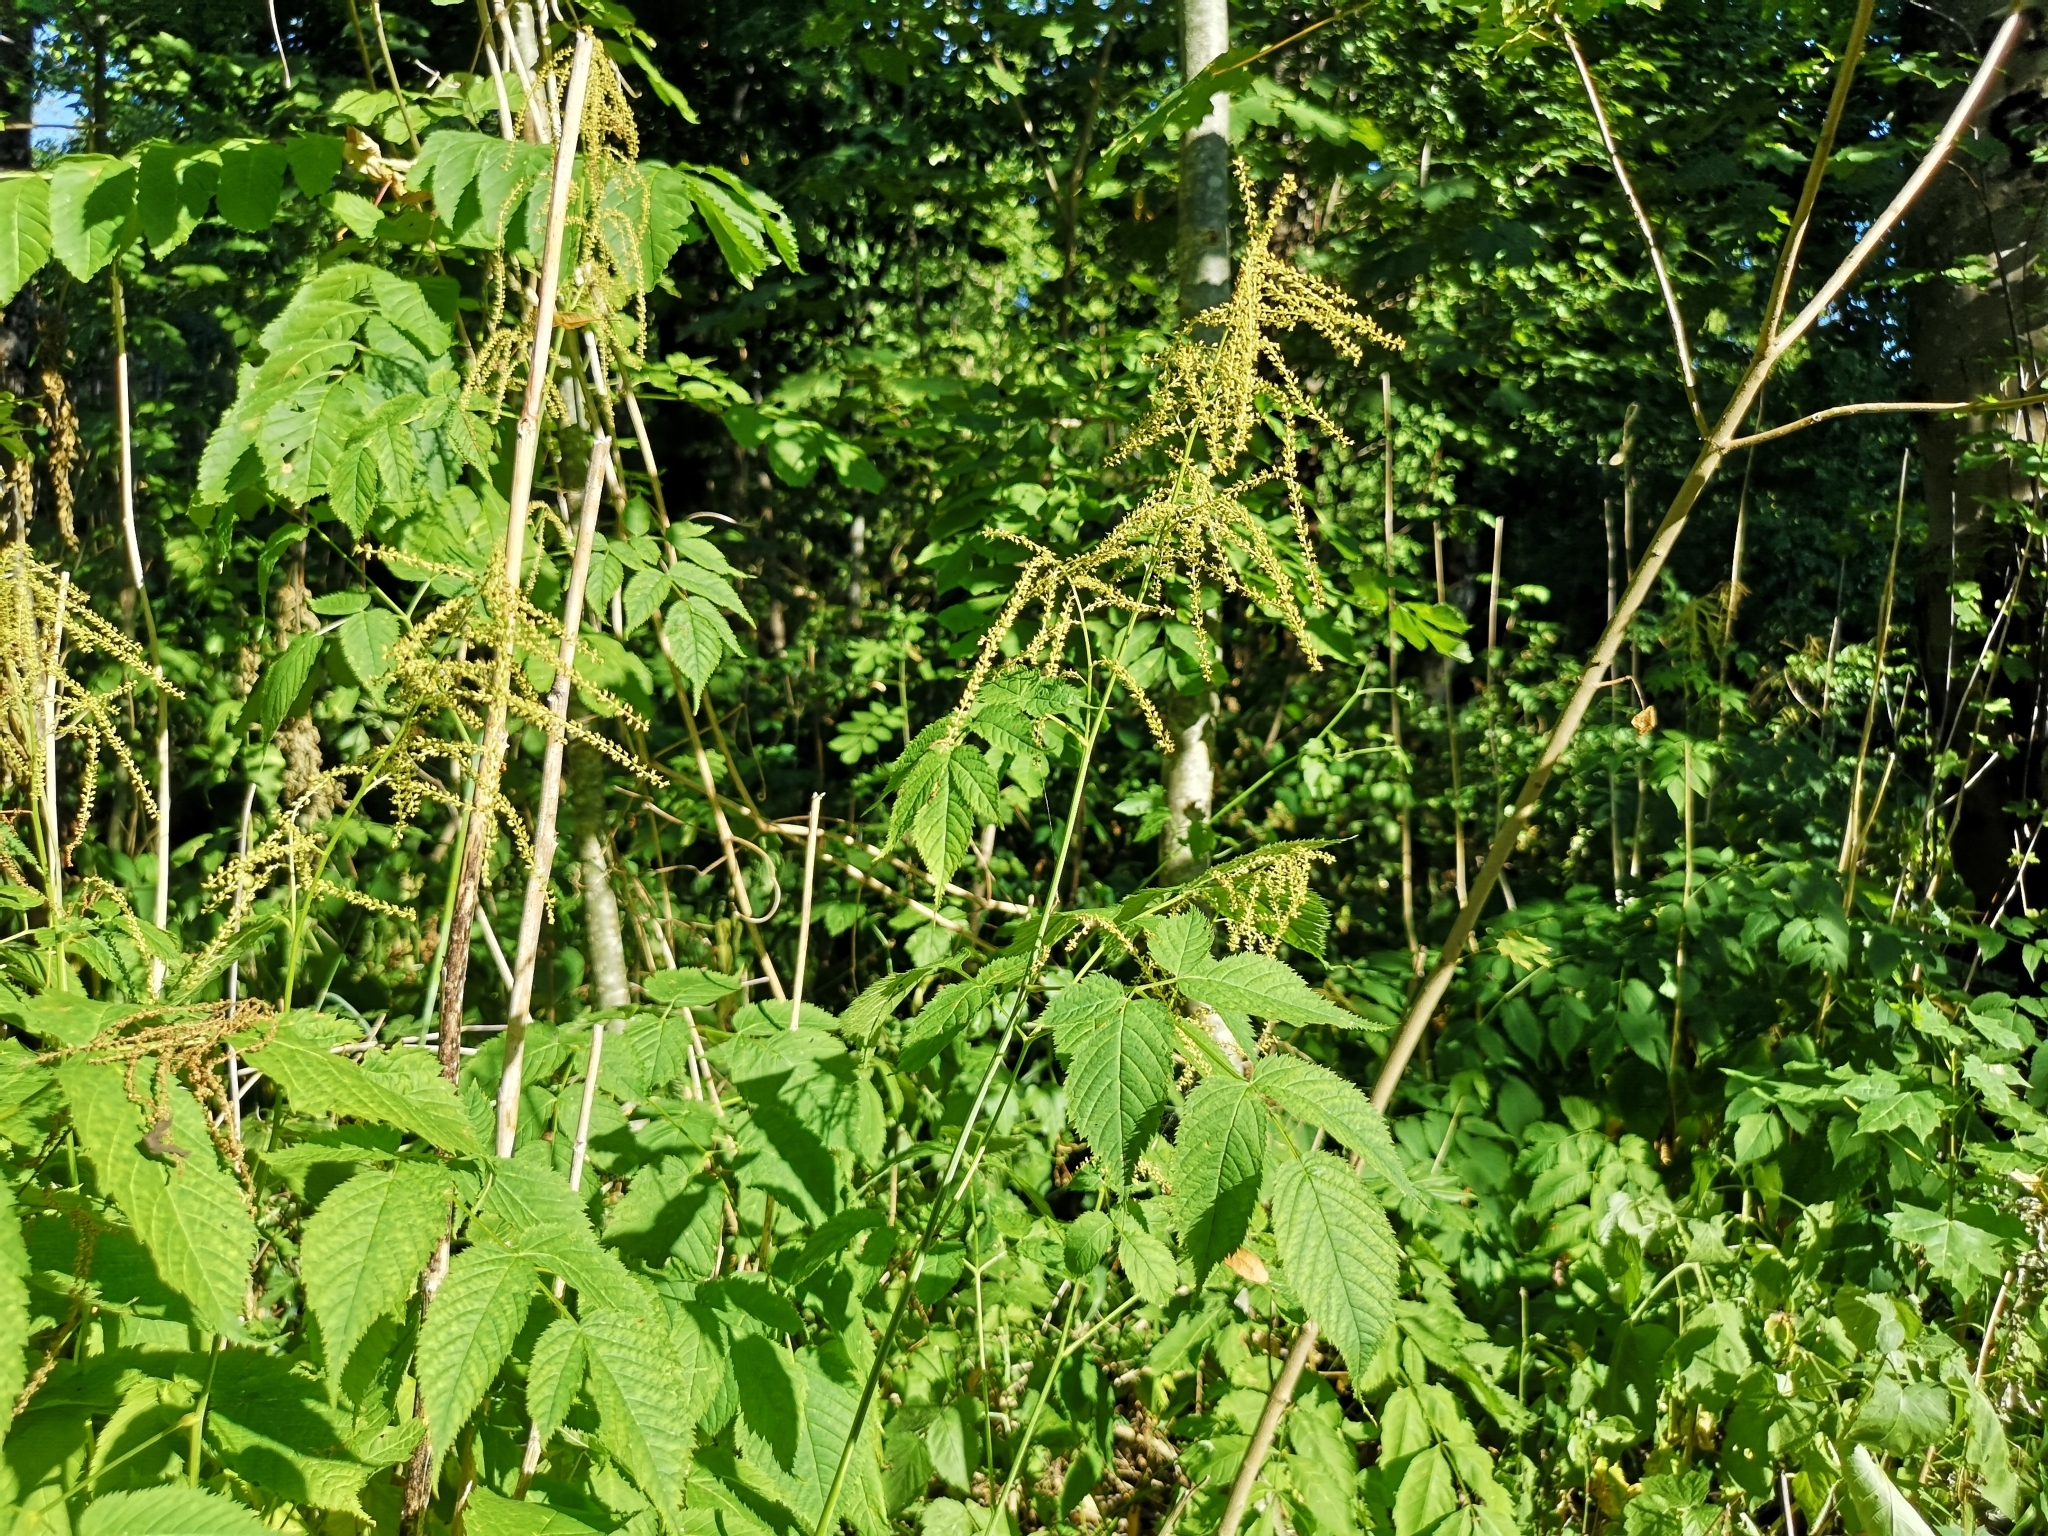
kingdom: Plantae
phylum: Tracheophyta
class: Magnoliopsida
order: Rosales
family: Rosaceae
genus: Aruncus
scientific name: Aruncus dioicus
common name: Buck's-beard
